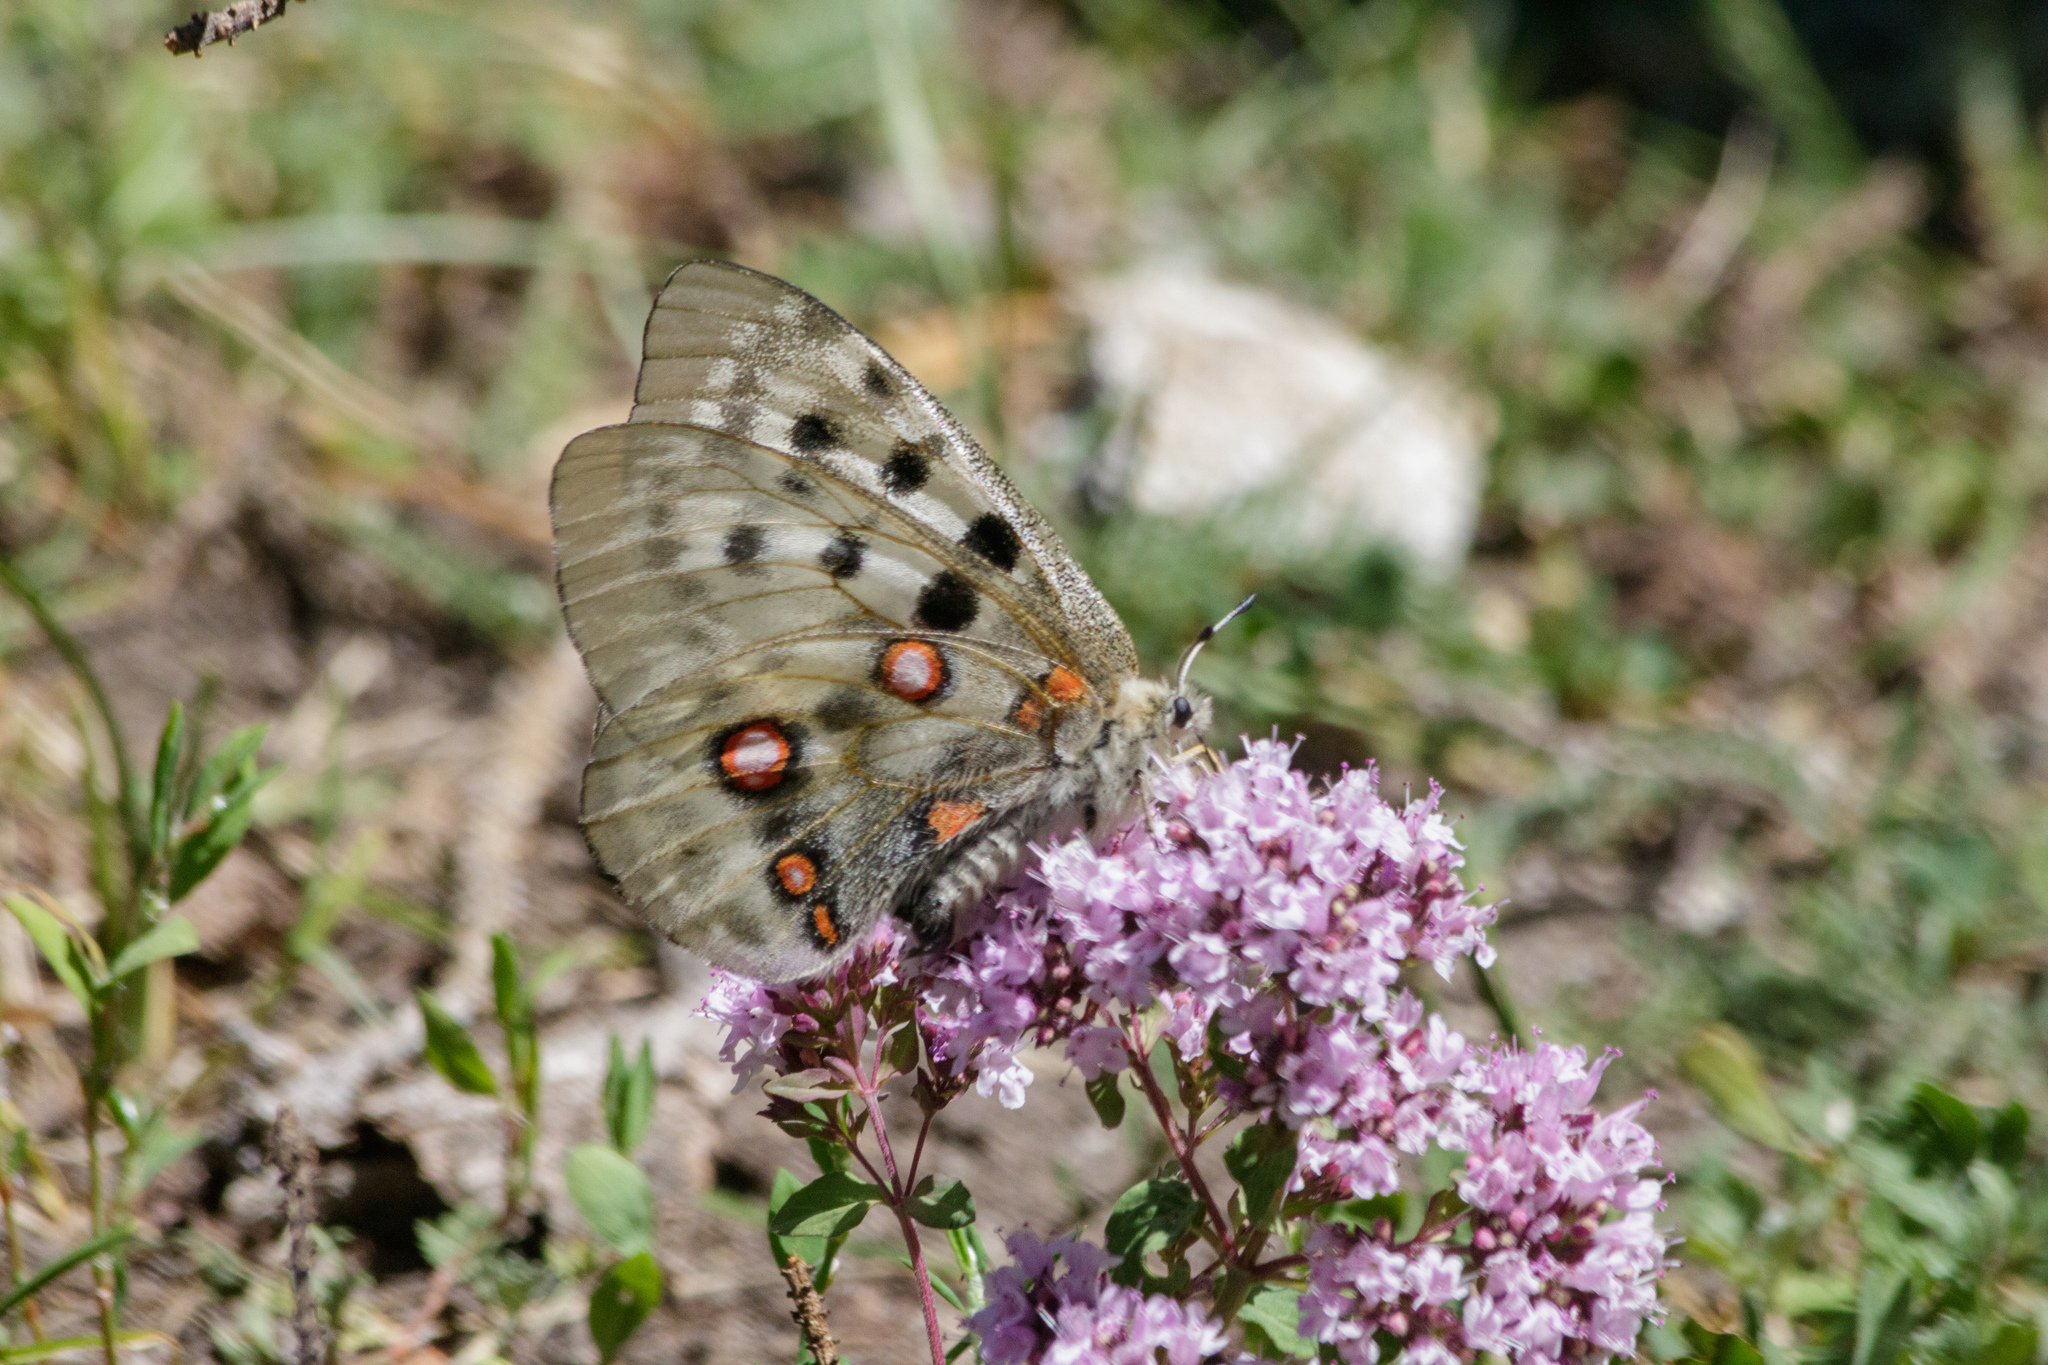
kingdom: Animalia
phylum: Arthropoda
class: Insecta
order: Lepidoptera
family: Papilionidae
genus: Parnassius
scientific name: Parnassius apollo
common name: Apollo
